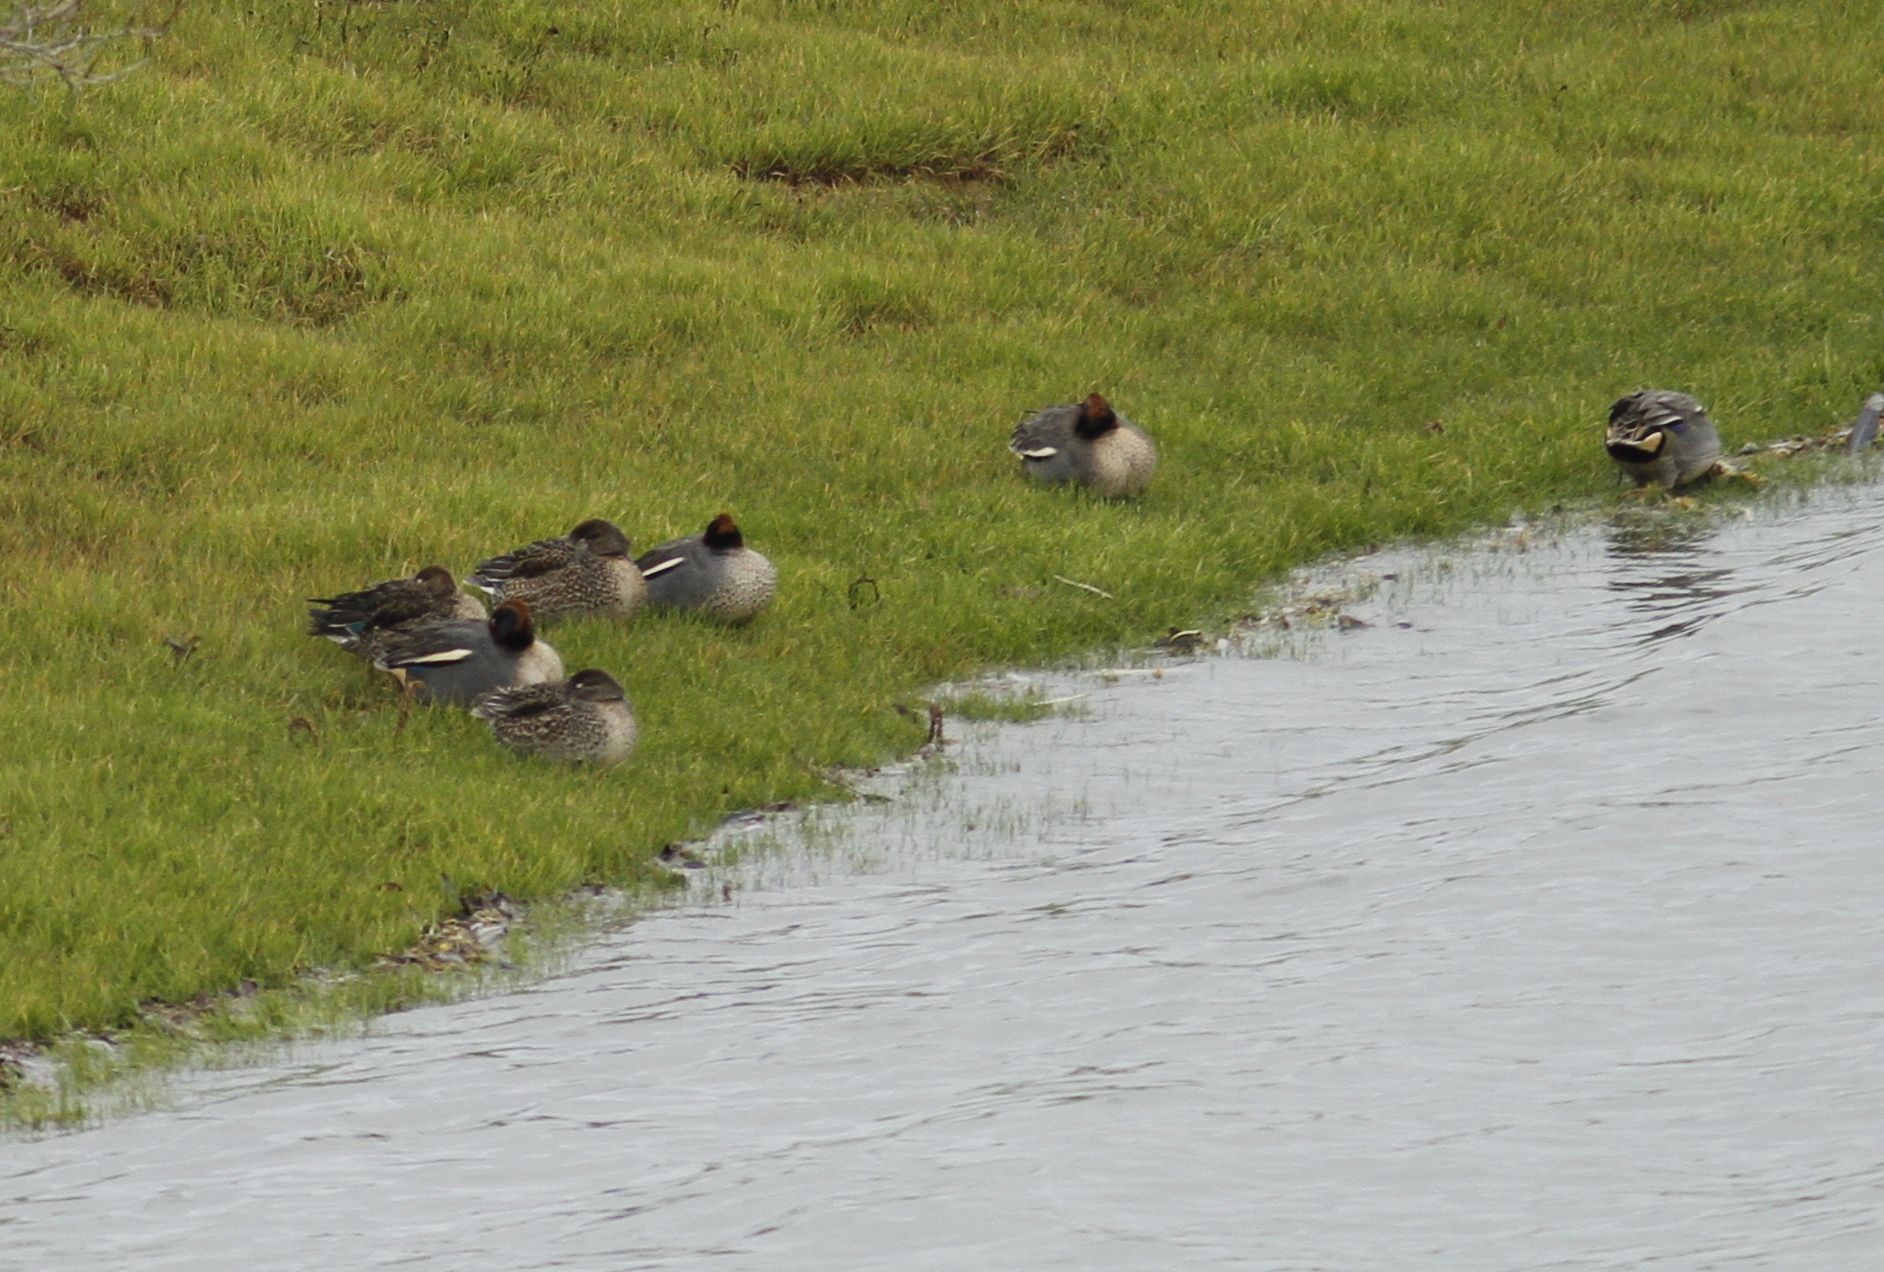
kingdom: Animalia
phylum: Chordata
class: Aves
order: Anseriformes
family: Anatidae
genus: Anas
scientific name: Anas crecca
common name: Eurasian teal
